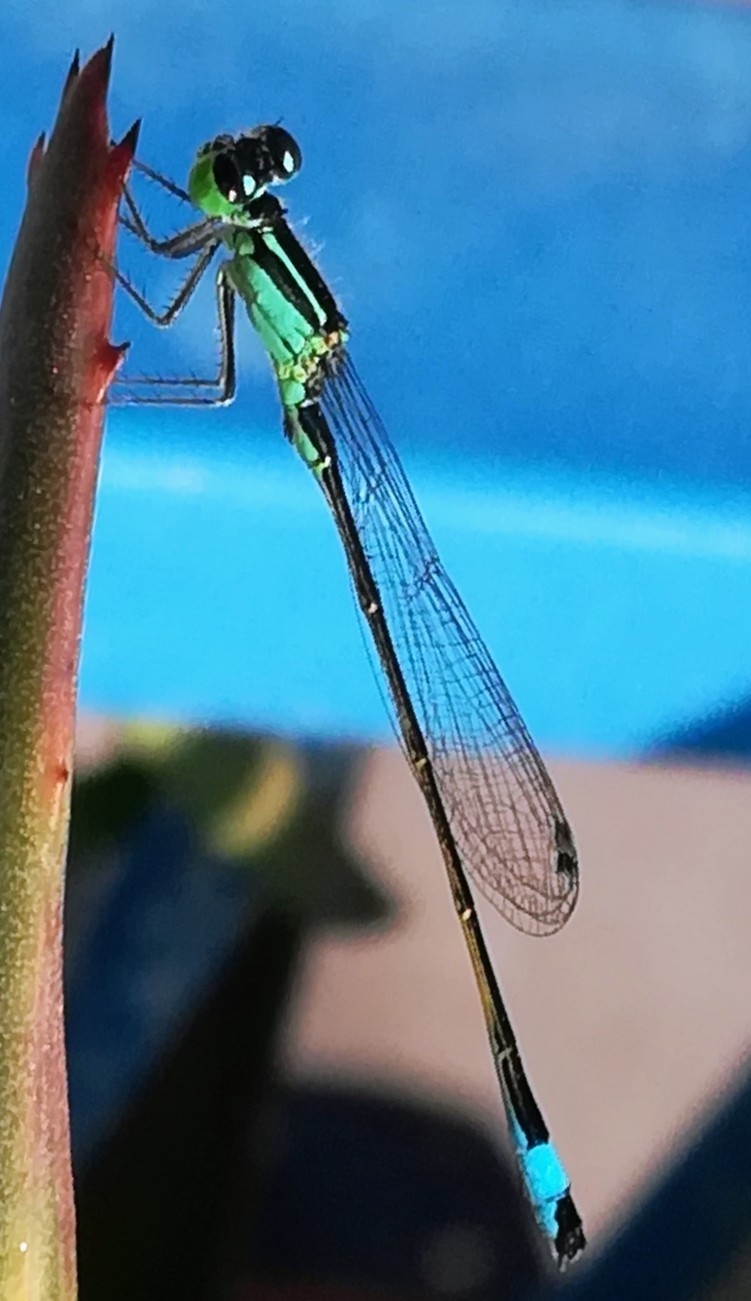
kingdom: Animalia
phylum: Arthropoda
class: Insecta
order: Odonata
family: Coenagrionidae
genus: Ischnura
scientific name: Ischnura elegans
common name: Blue-tailed damselfly
